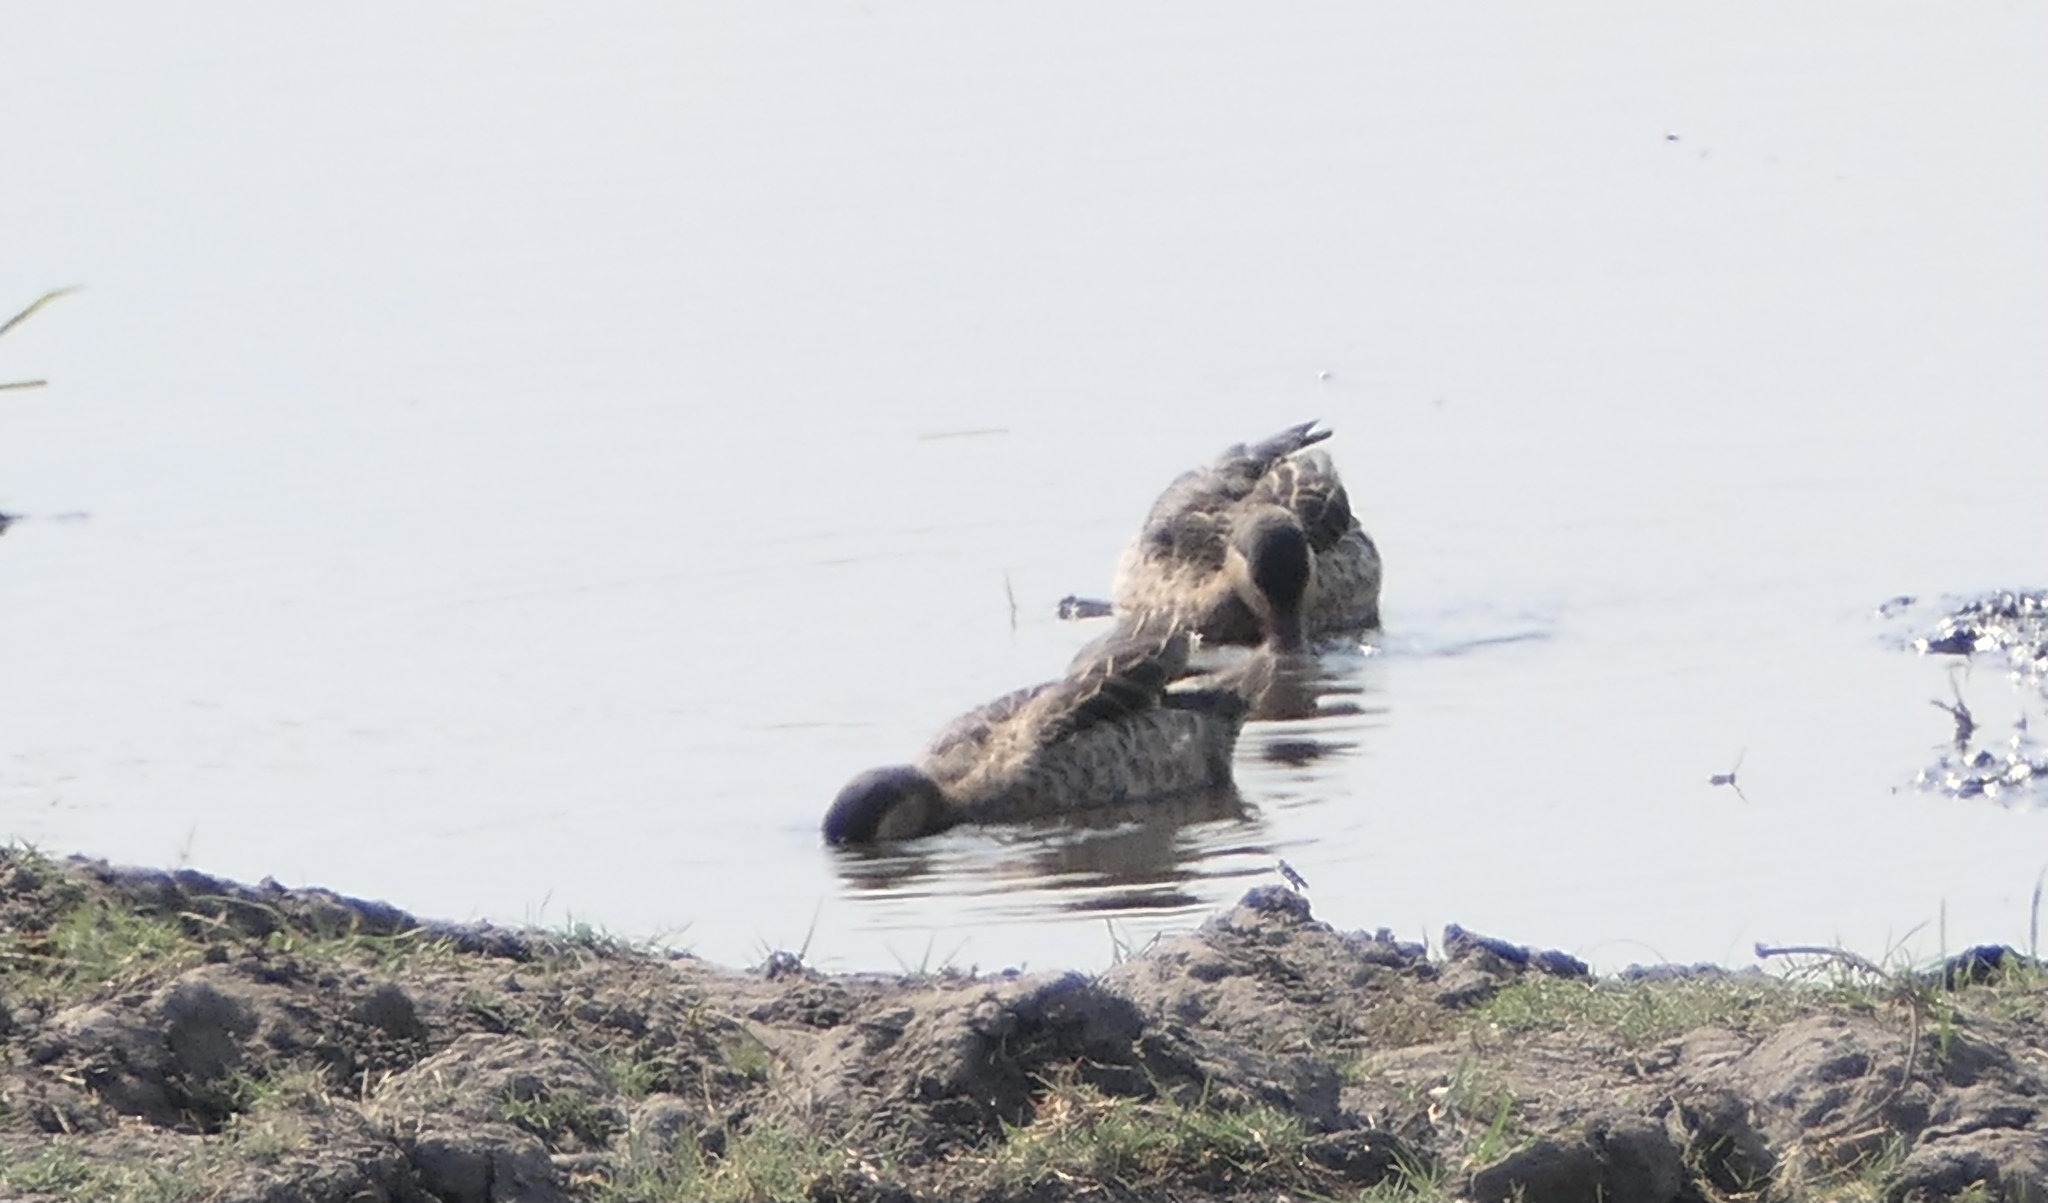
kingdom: Animalia
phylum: Chordata
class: Aves
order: Anseriformes
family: Anatidae
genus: Anas
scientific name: Anas erythrorhyncha
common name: Red-billed teal
